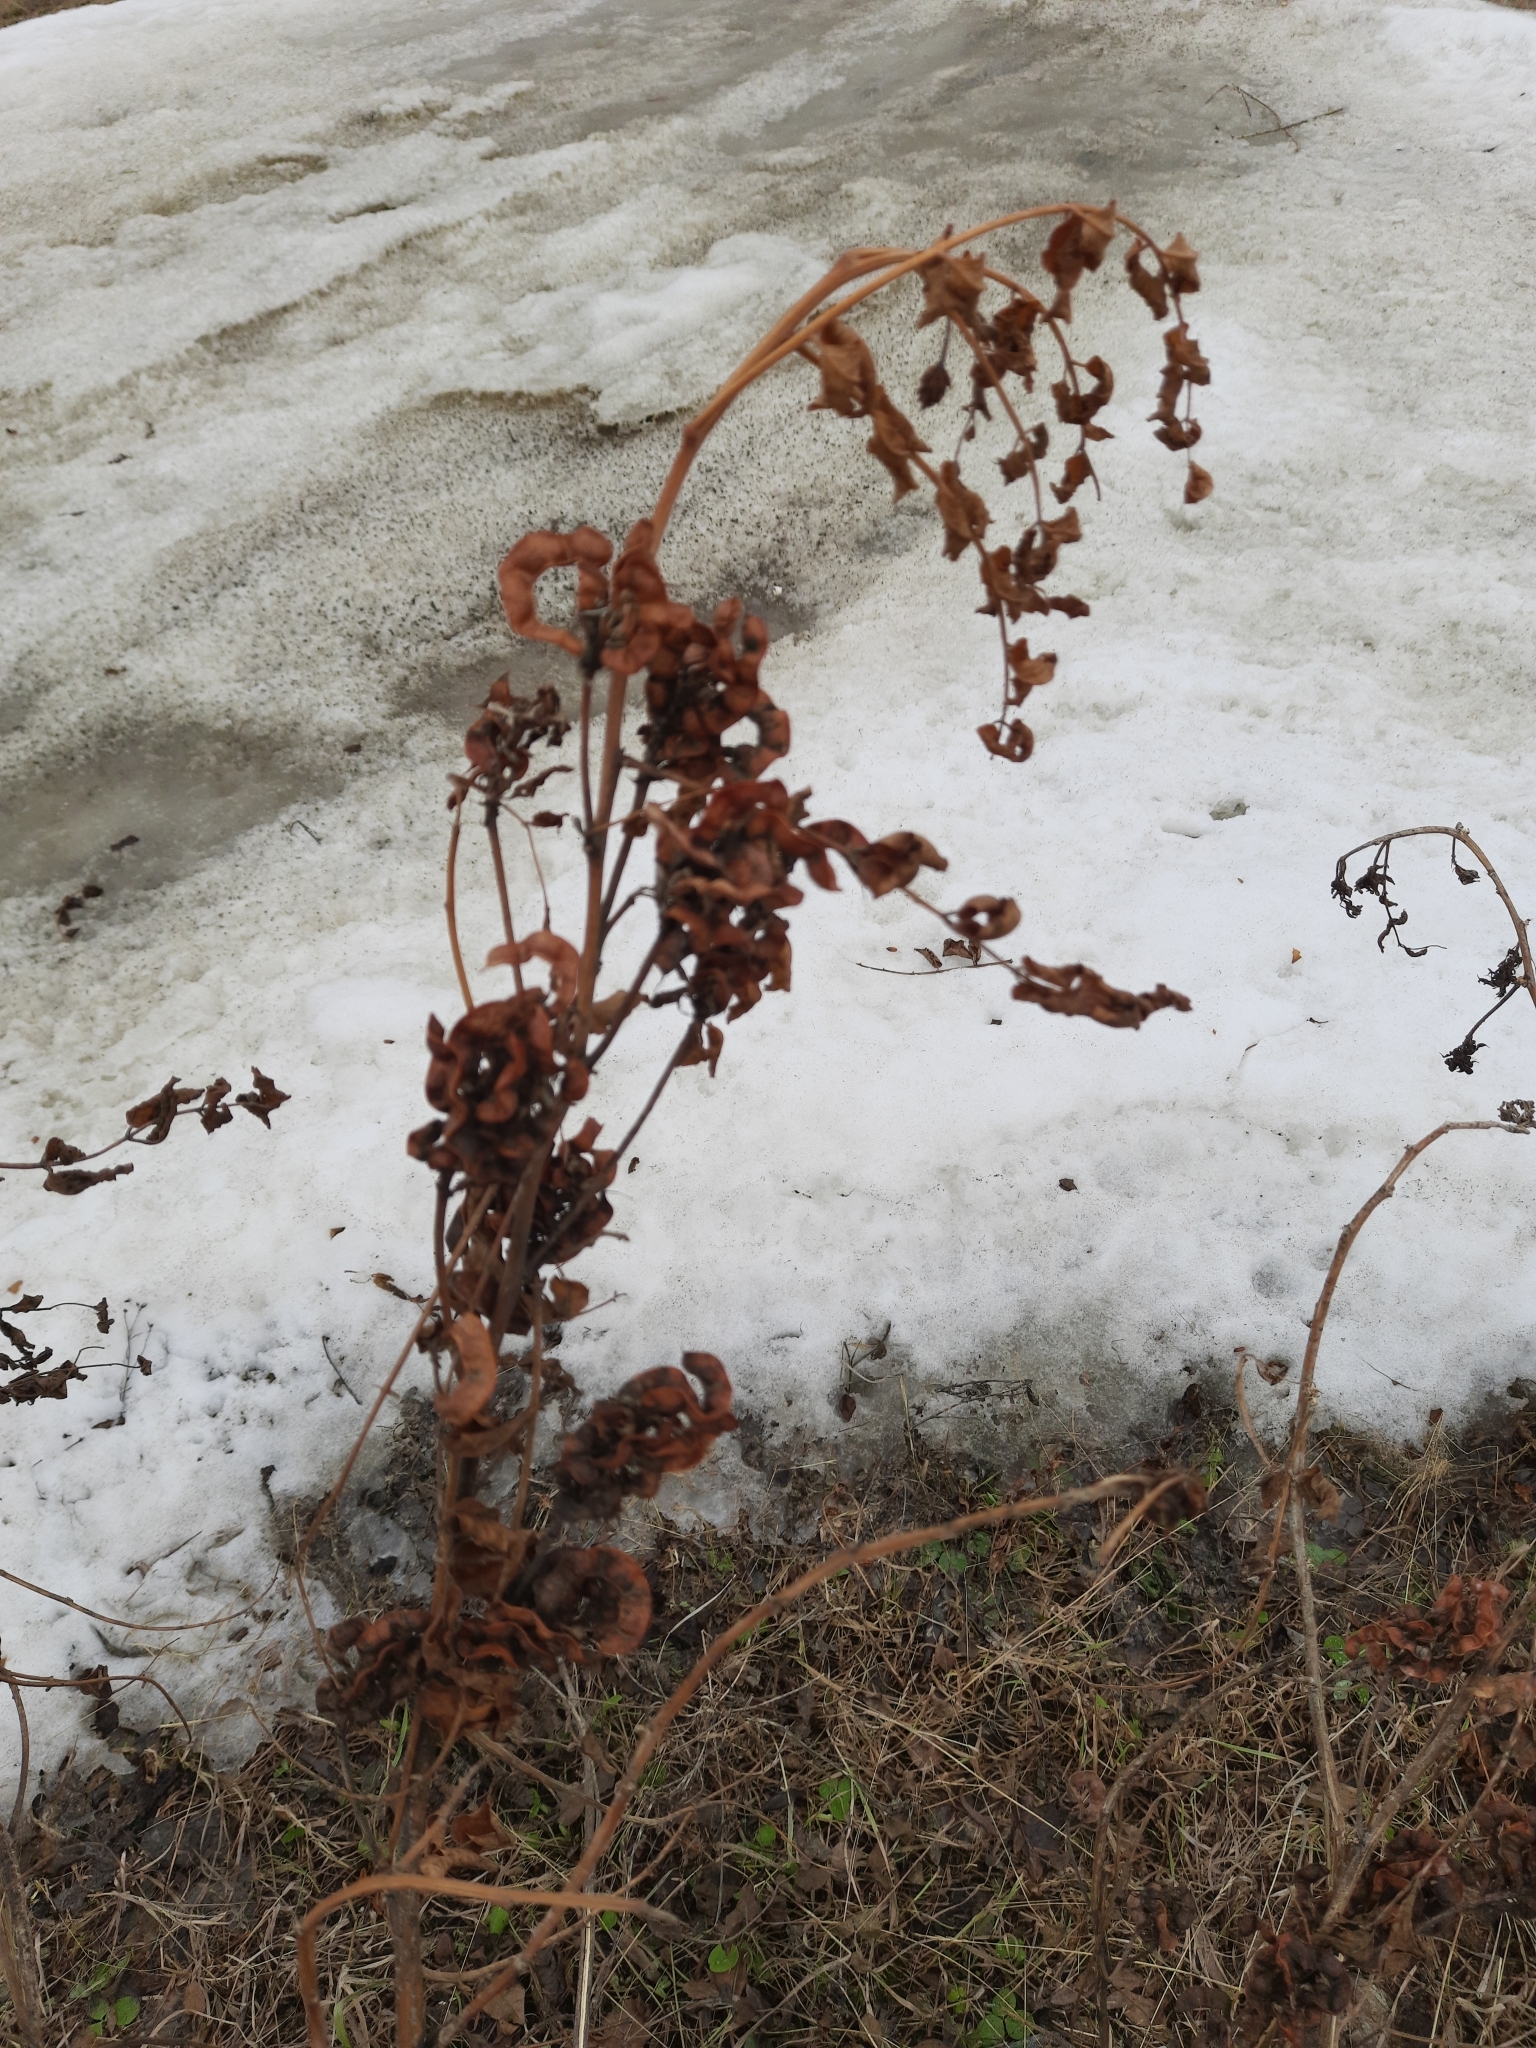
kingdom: Plantae
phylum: Tracheophyta
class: Magnoliopsida
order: Fabales
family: Fabaceae
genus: Glycyrrhiza
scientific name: Glycyrrhiza uralensis
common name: Chinese licorice
